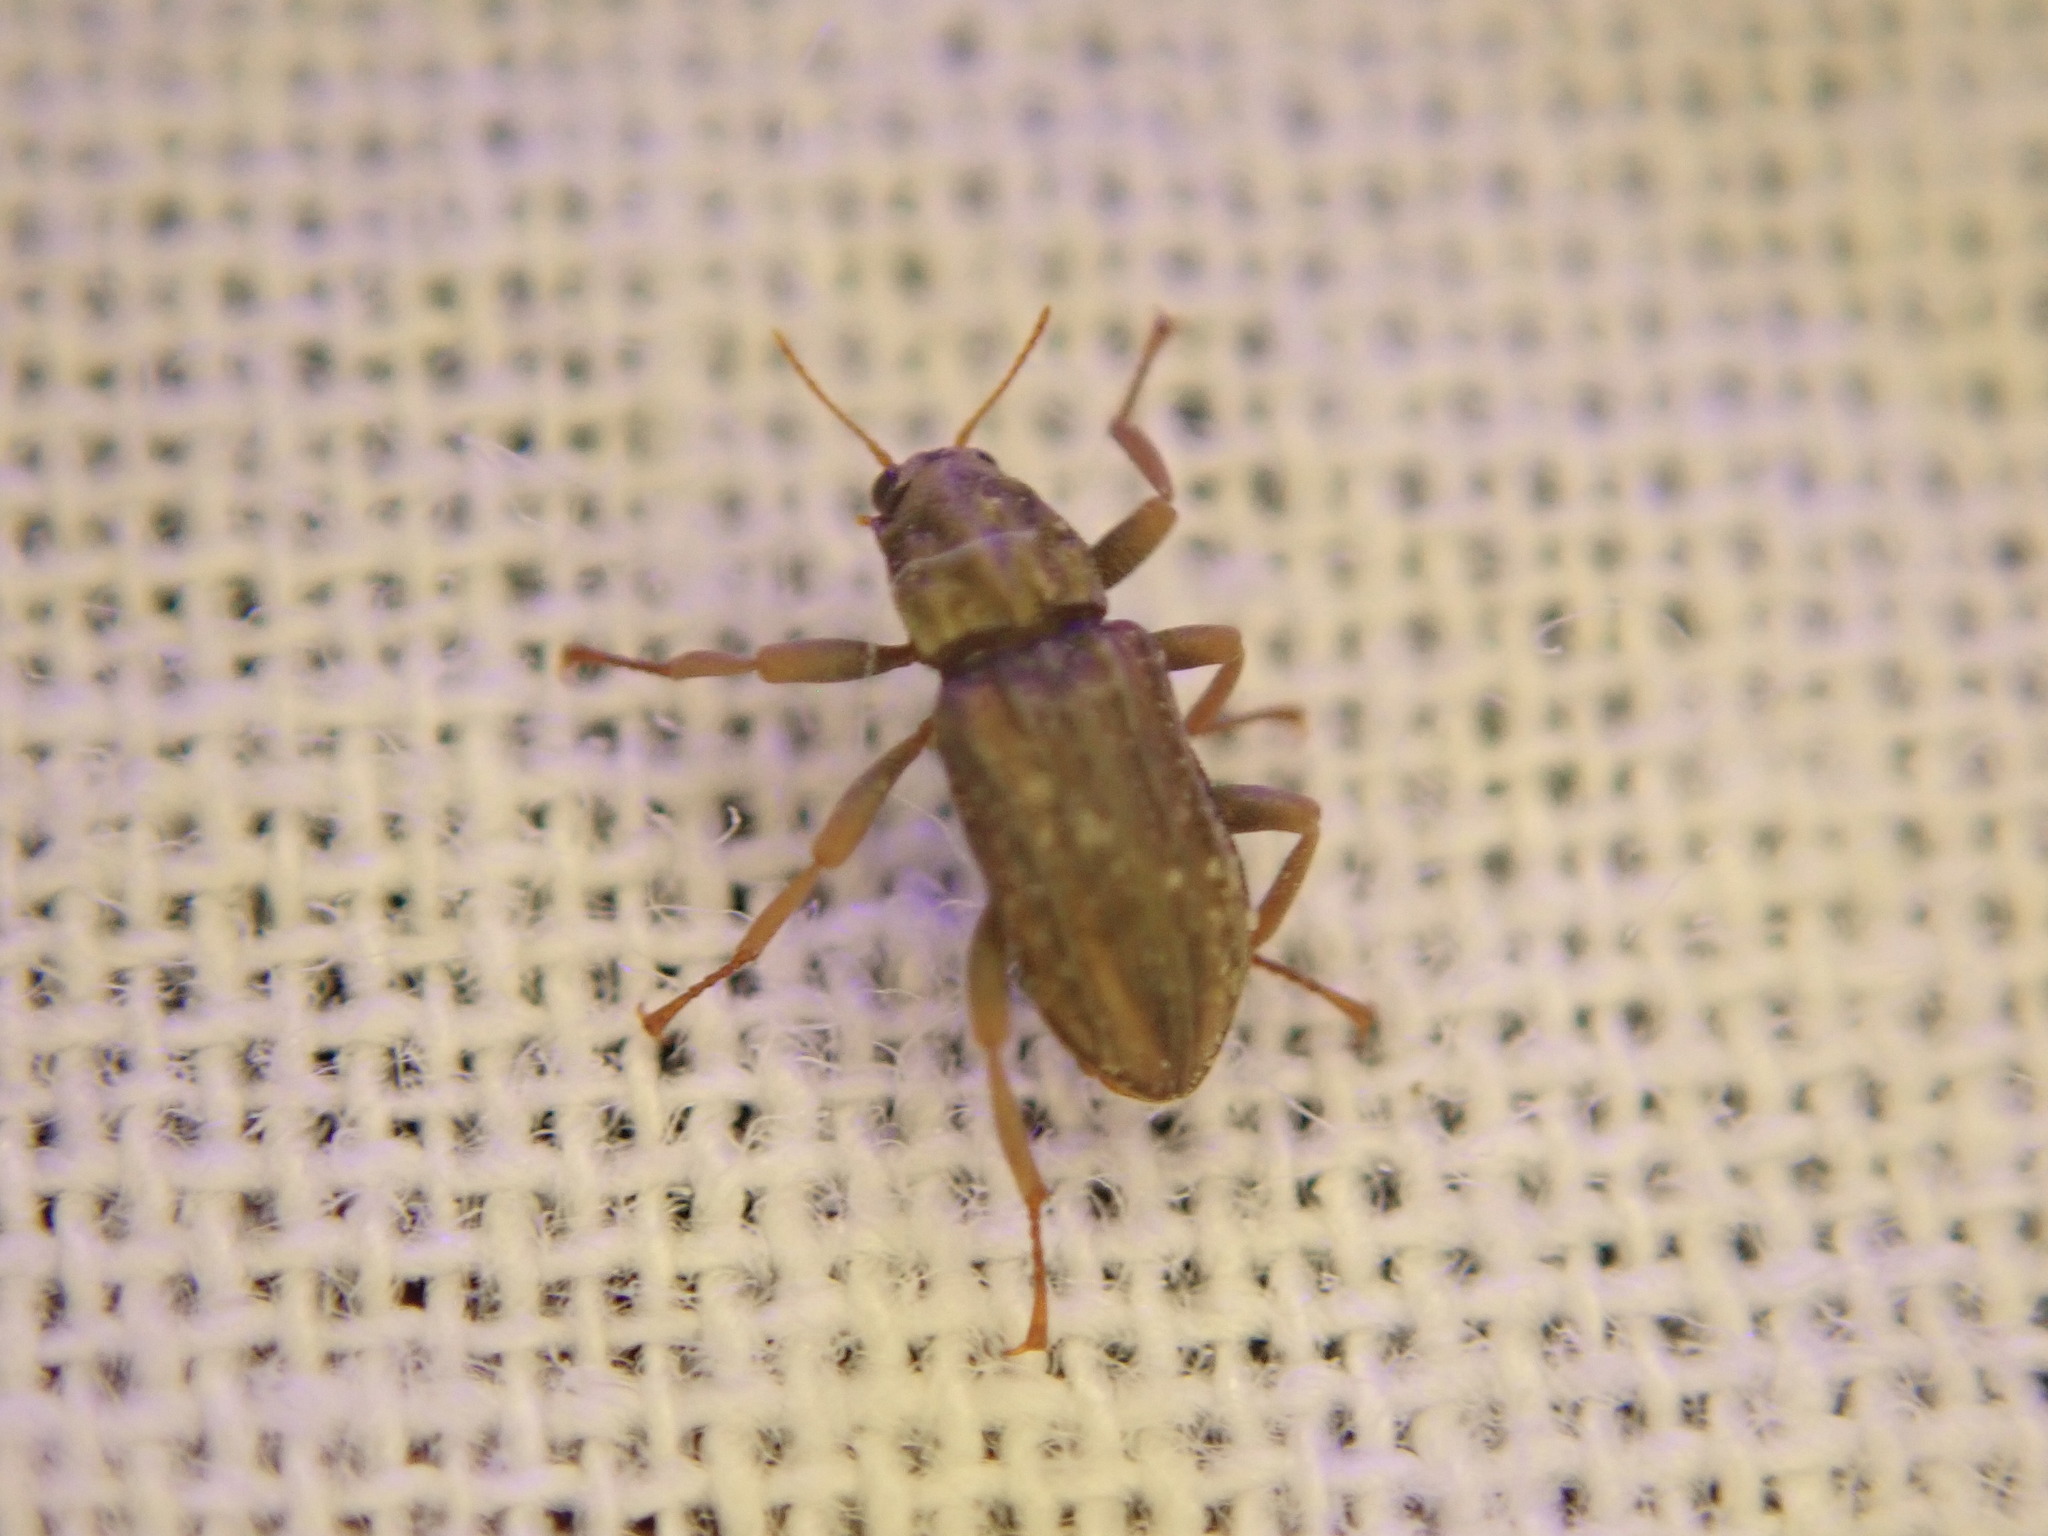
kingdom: Animalia
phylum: Arthropoda
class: Insecta
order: Coleoptera
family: Elmidae
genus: Stenelmis
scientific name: Stenelmis
